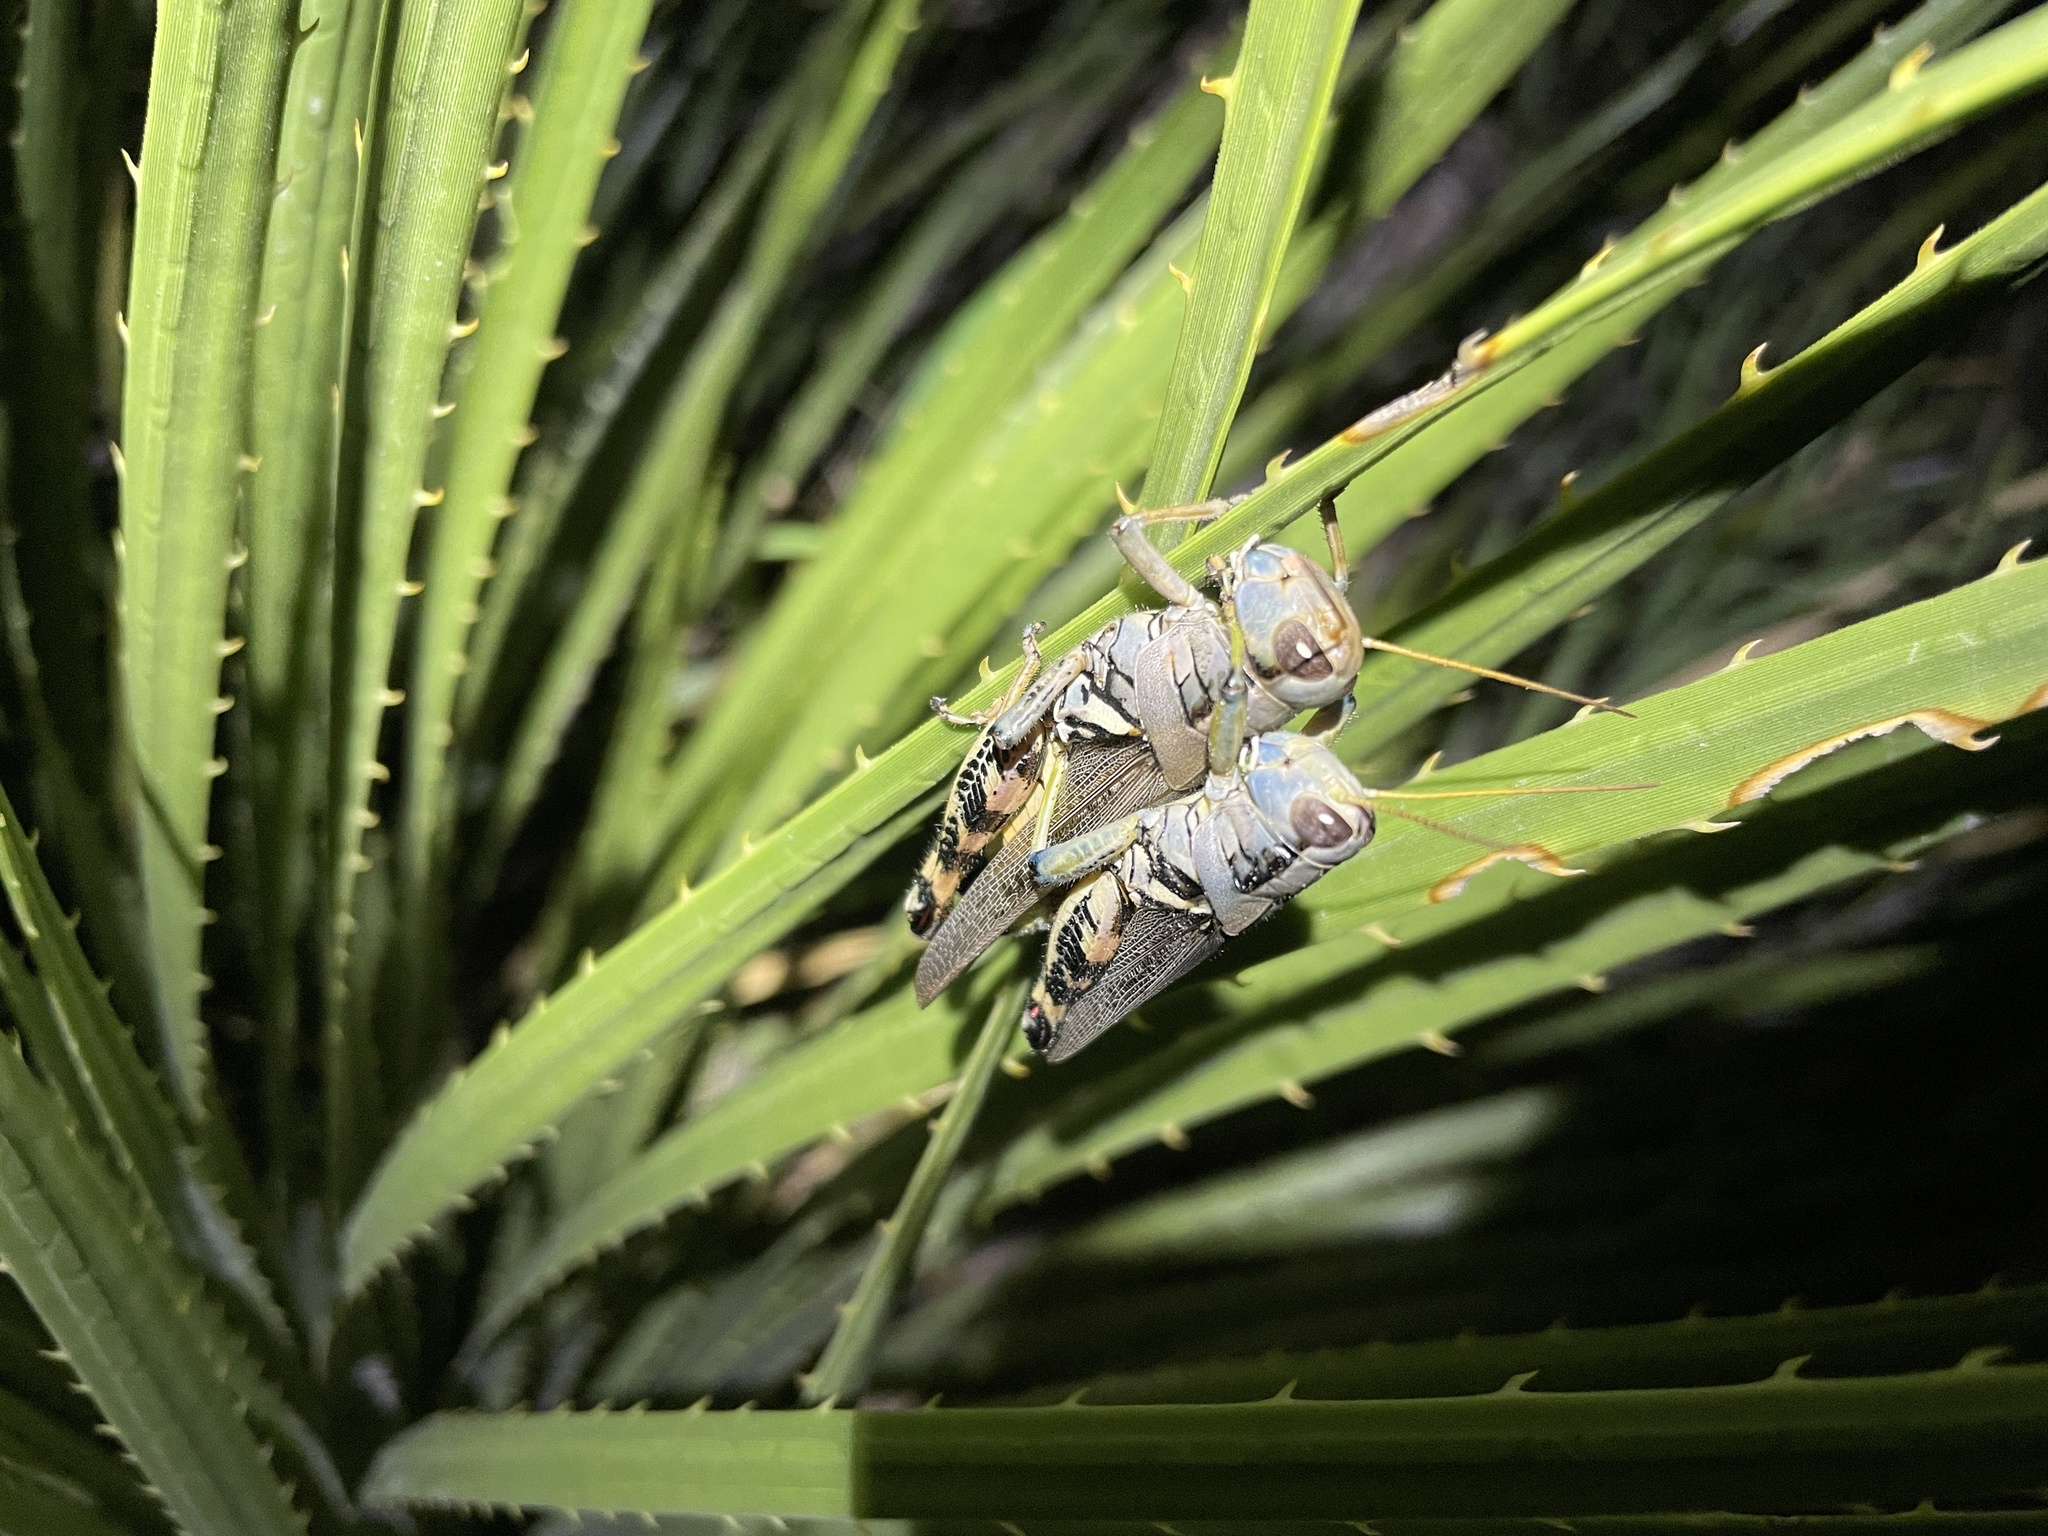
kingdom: Animalia
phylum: Arthropoda
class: Insecta
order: Orthoptera
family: Acrididae
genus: Melanoplus
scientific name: Melanoplus eumera
